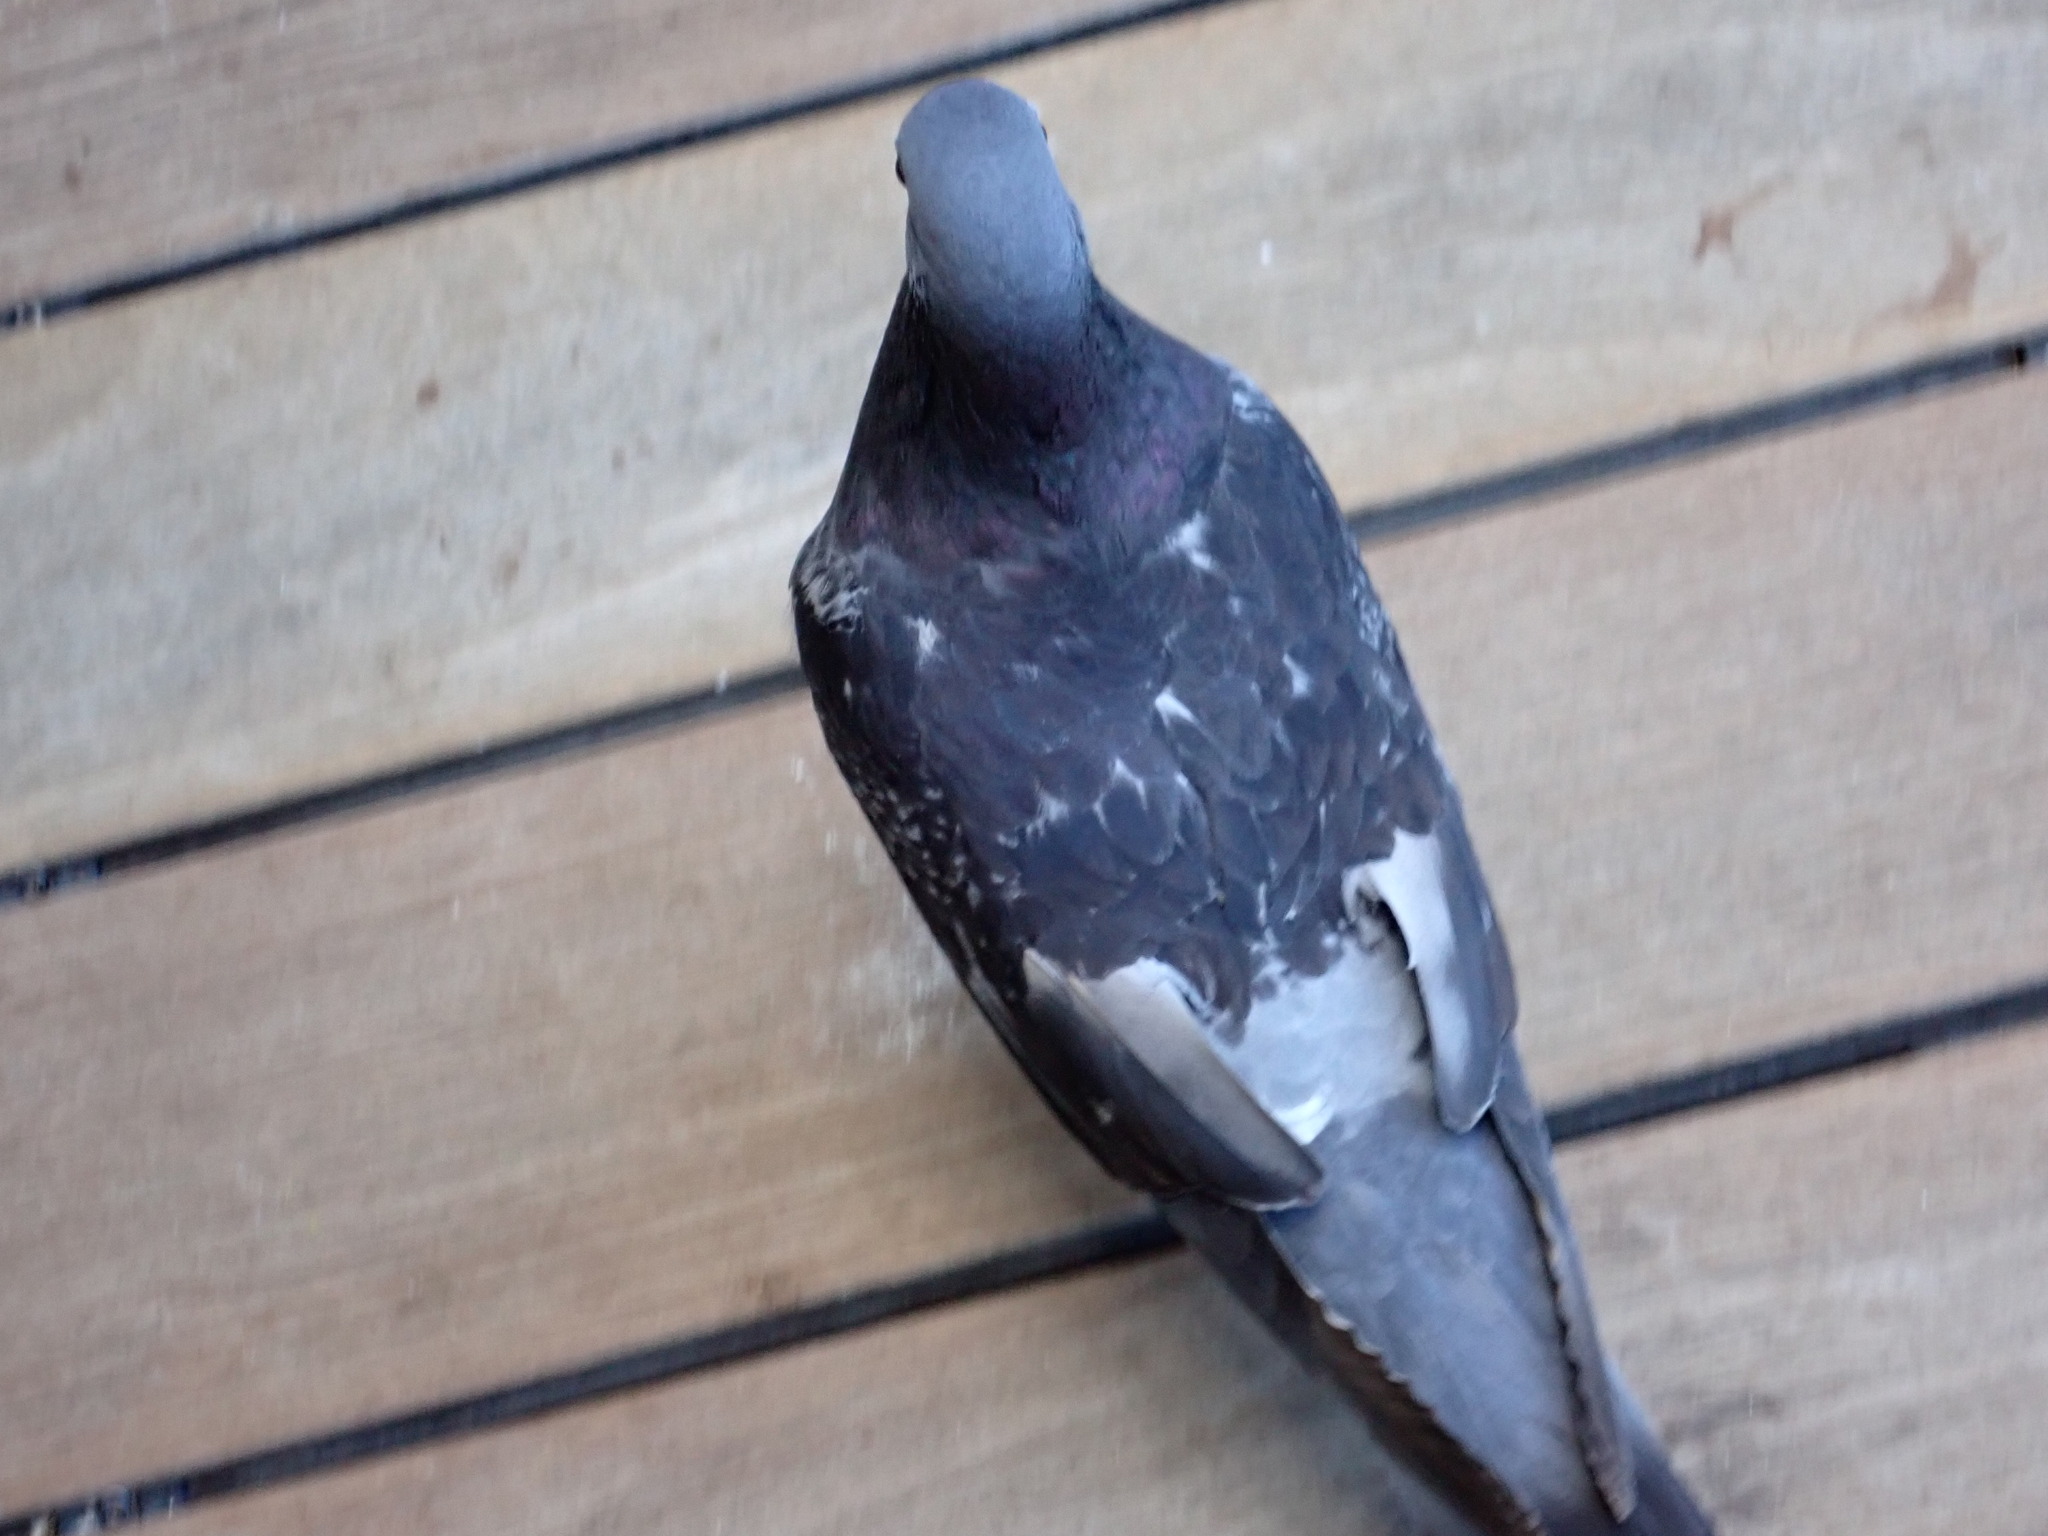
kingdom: Animalia
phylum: Chordata
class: Aves
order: Columbiformes
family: Columbidae
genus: Columba
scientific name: Columba livia
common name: Rock pigeon
